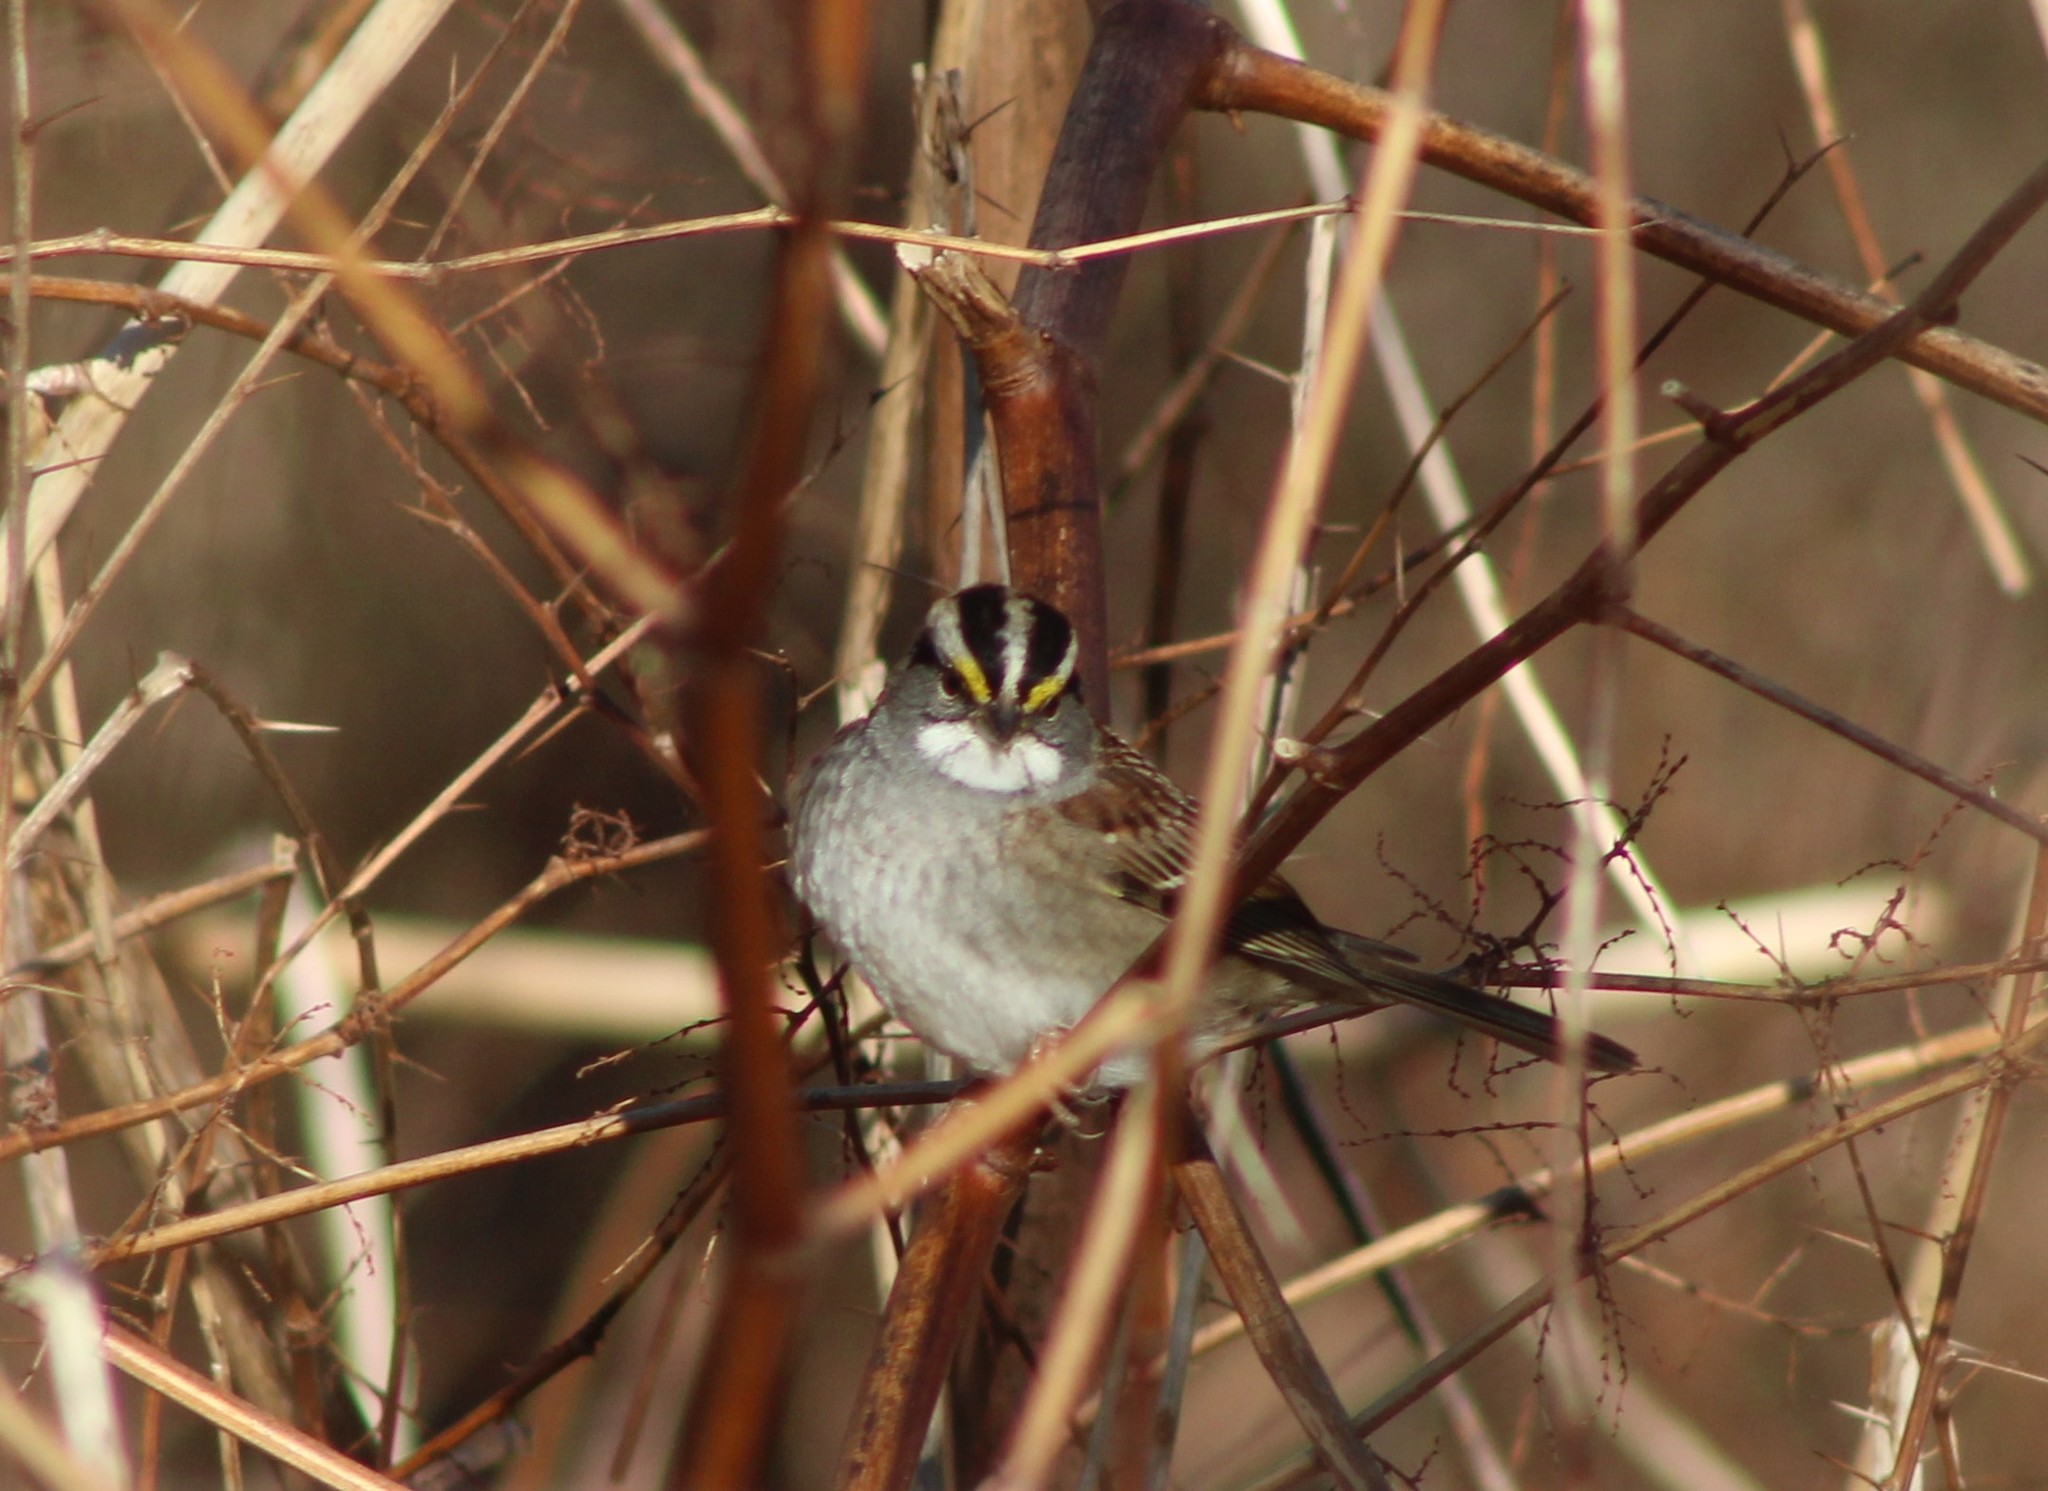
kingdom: Animalia
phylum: Chordata
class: Aves
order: Passeriformes
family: Passerellidae
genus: Zonotrichia
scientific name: Zonotrichia albicollis
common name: White-throated sparrow
